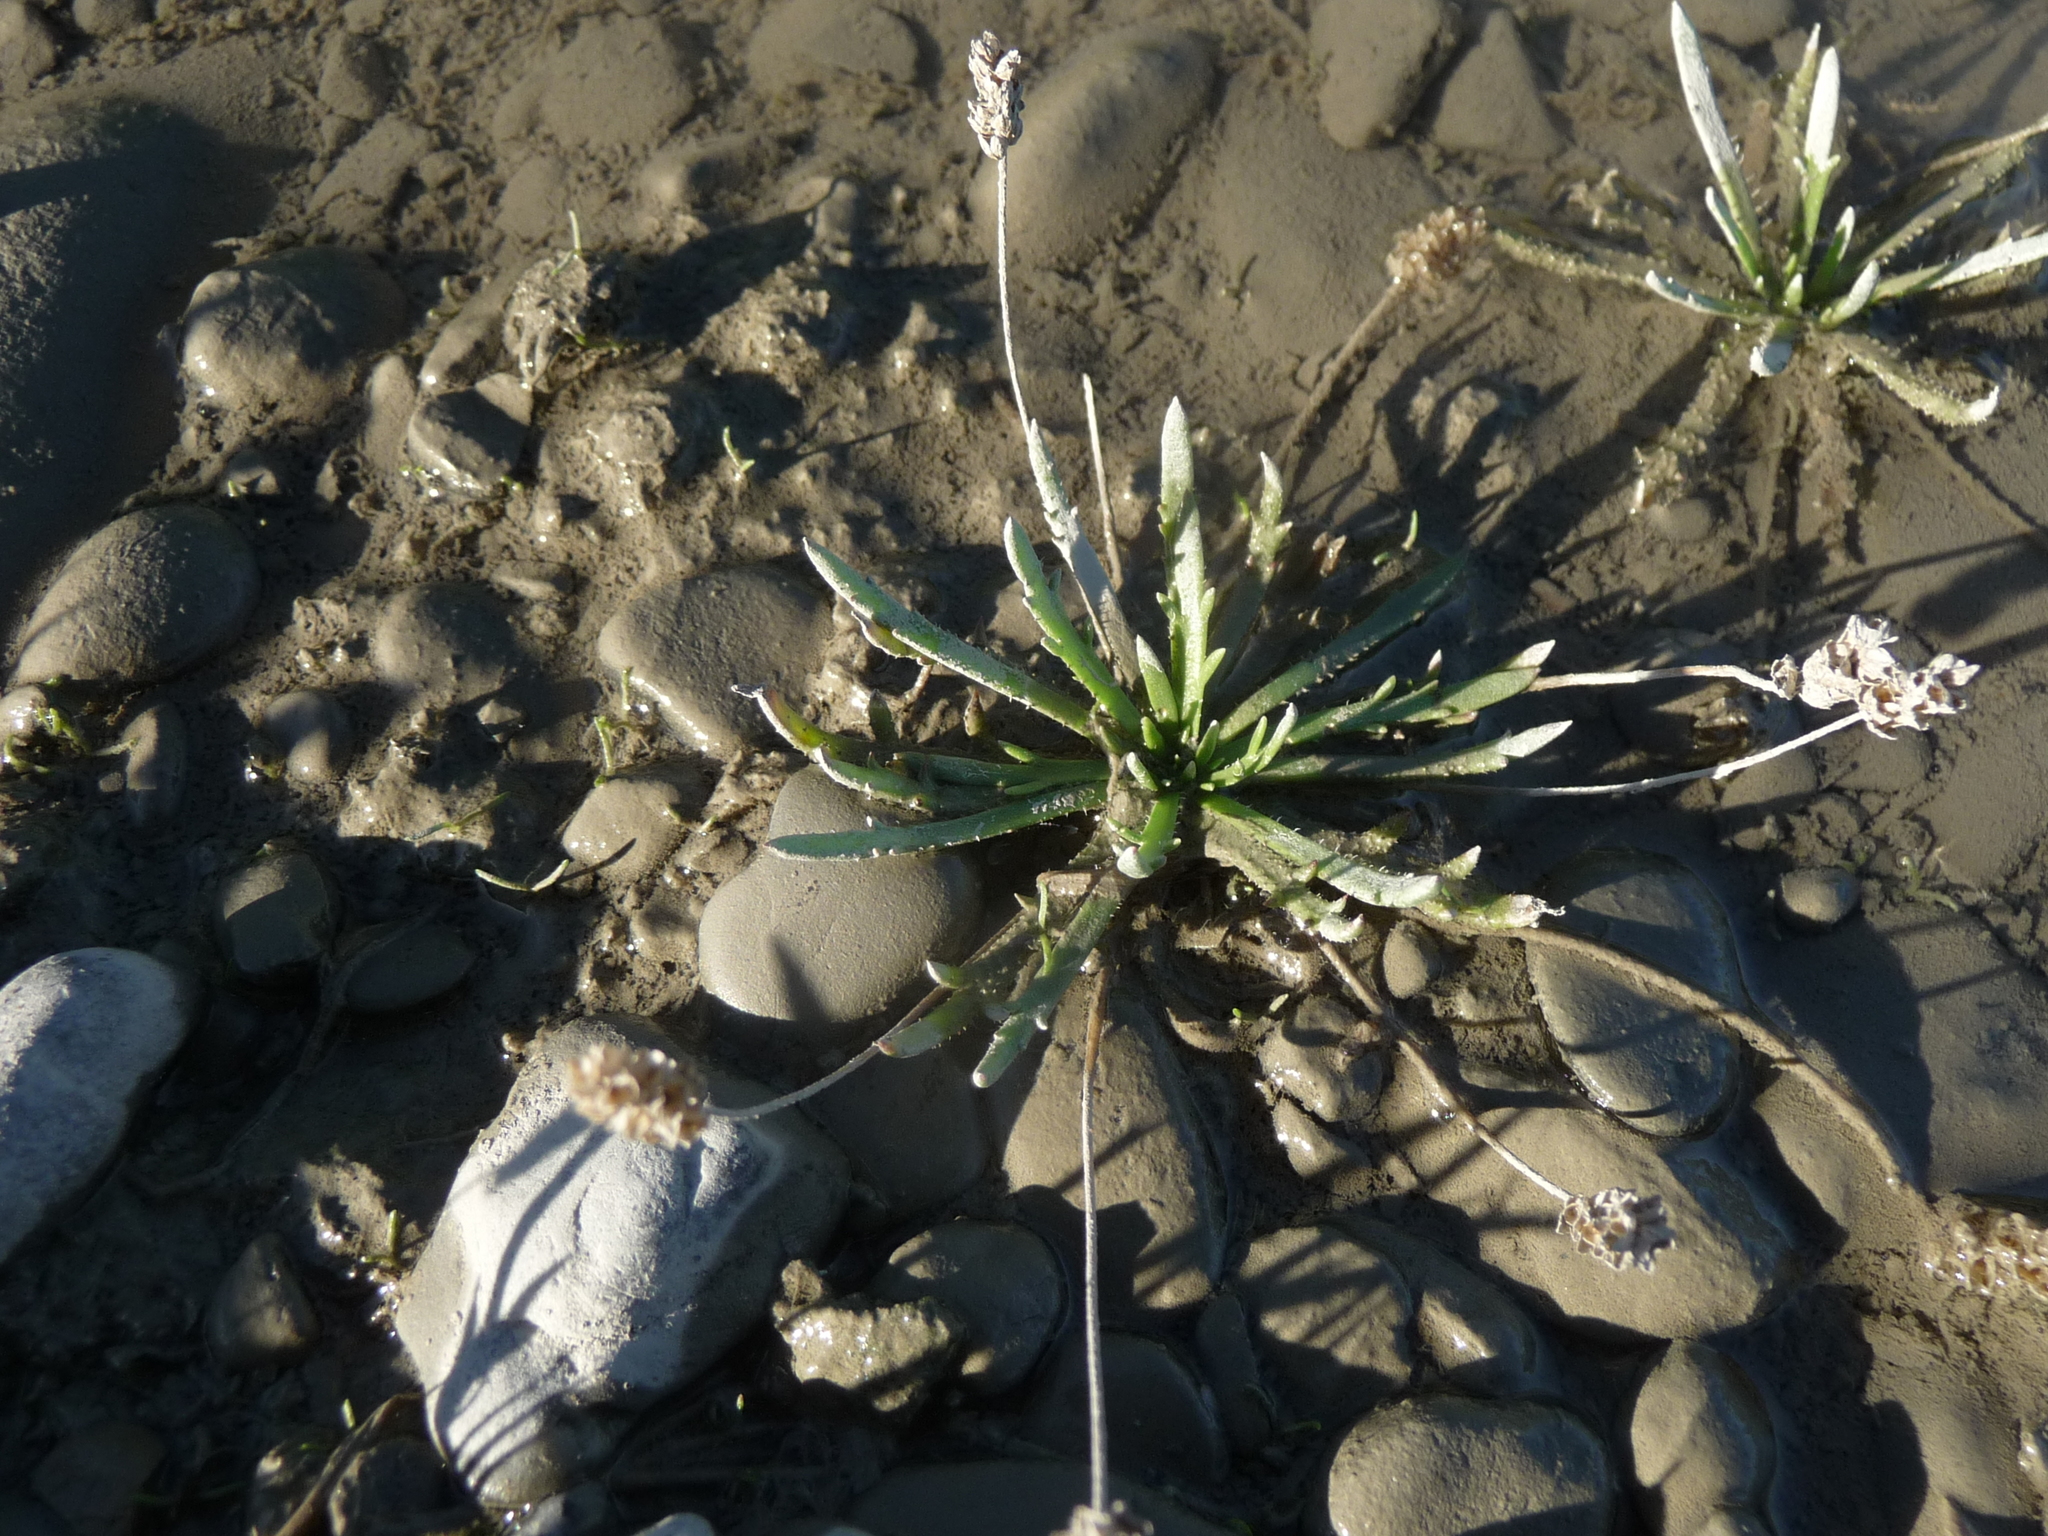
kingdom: Plantae
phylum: Tracheophyta
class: Magnoliopsida
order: Lamiales
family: Plantaginaceae
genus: Plantago
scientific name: Plantago coronopus
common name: Buck's-horn plantain
